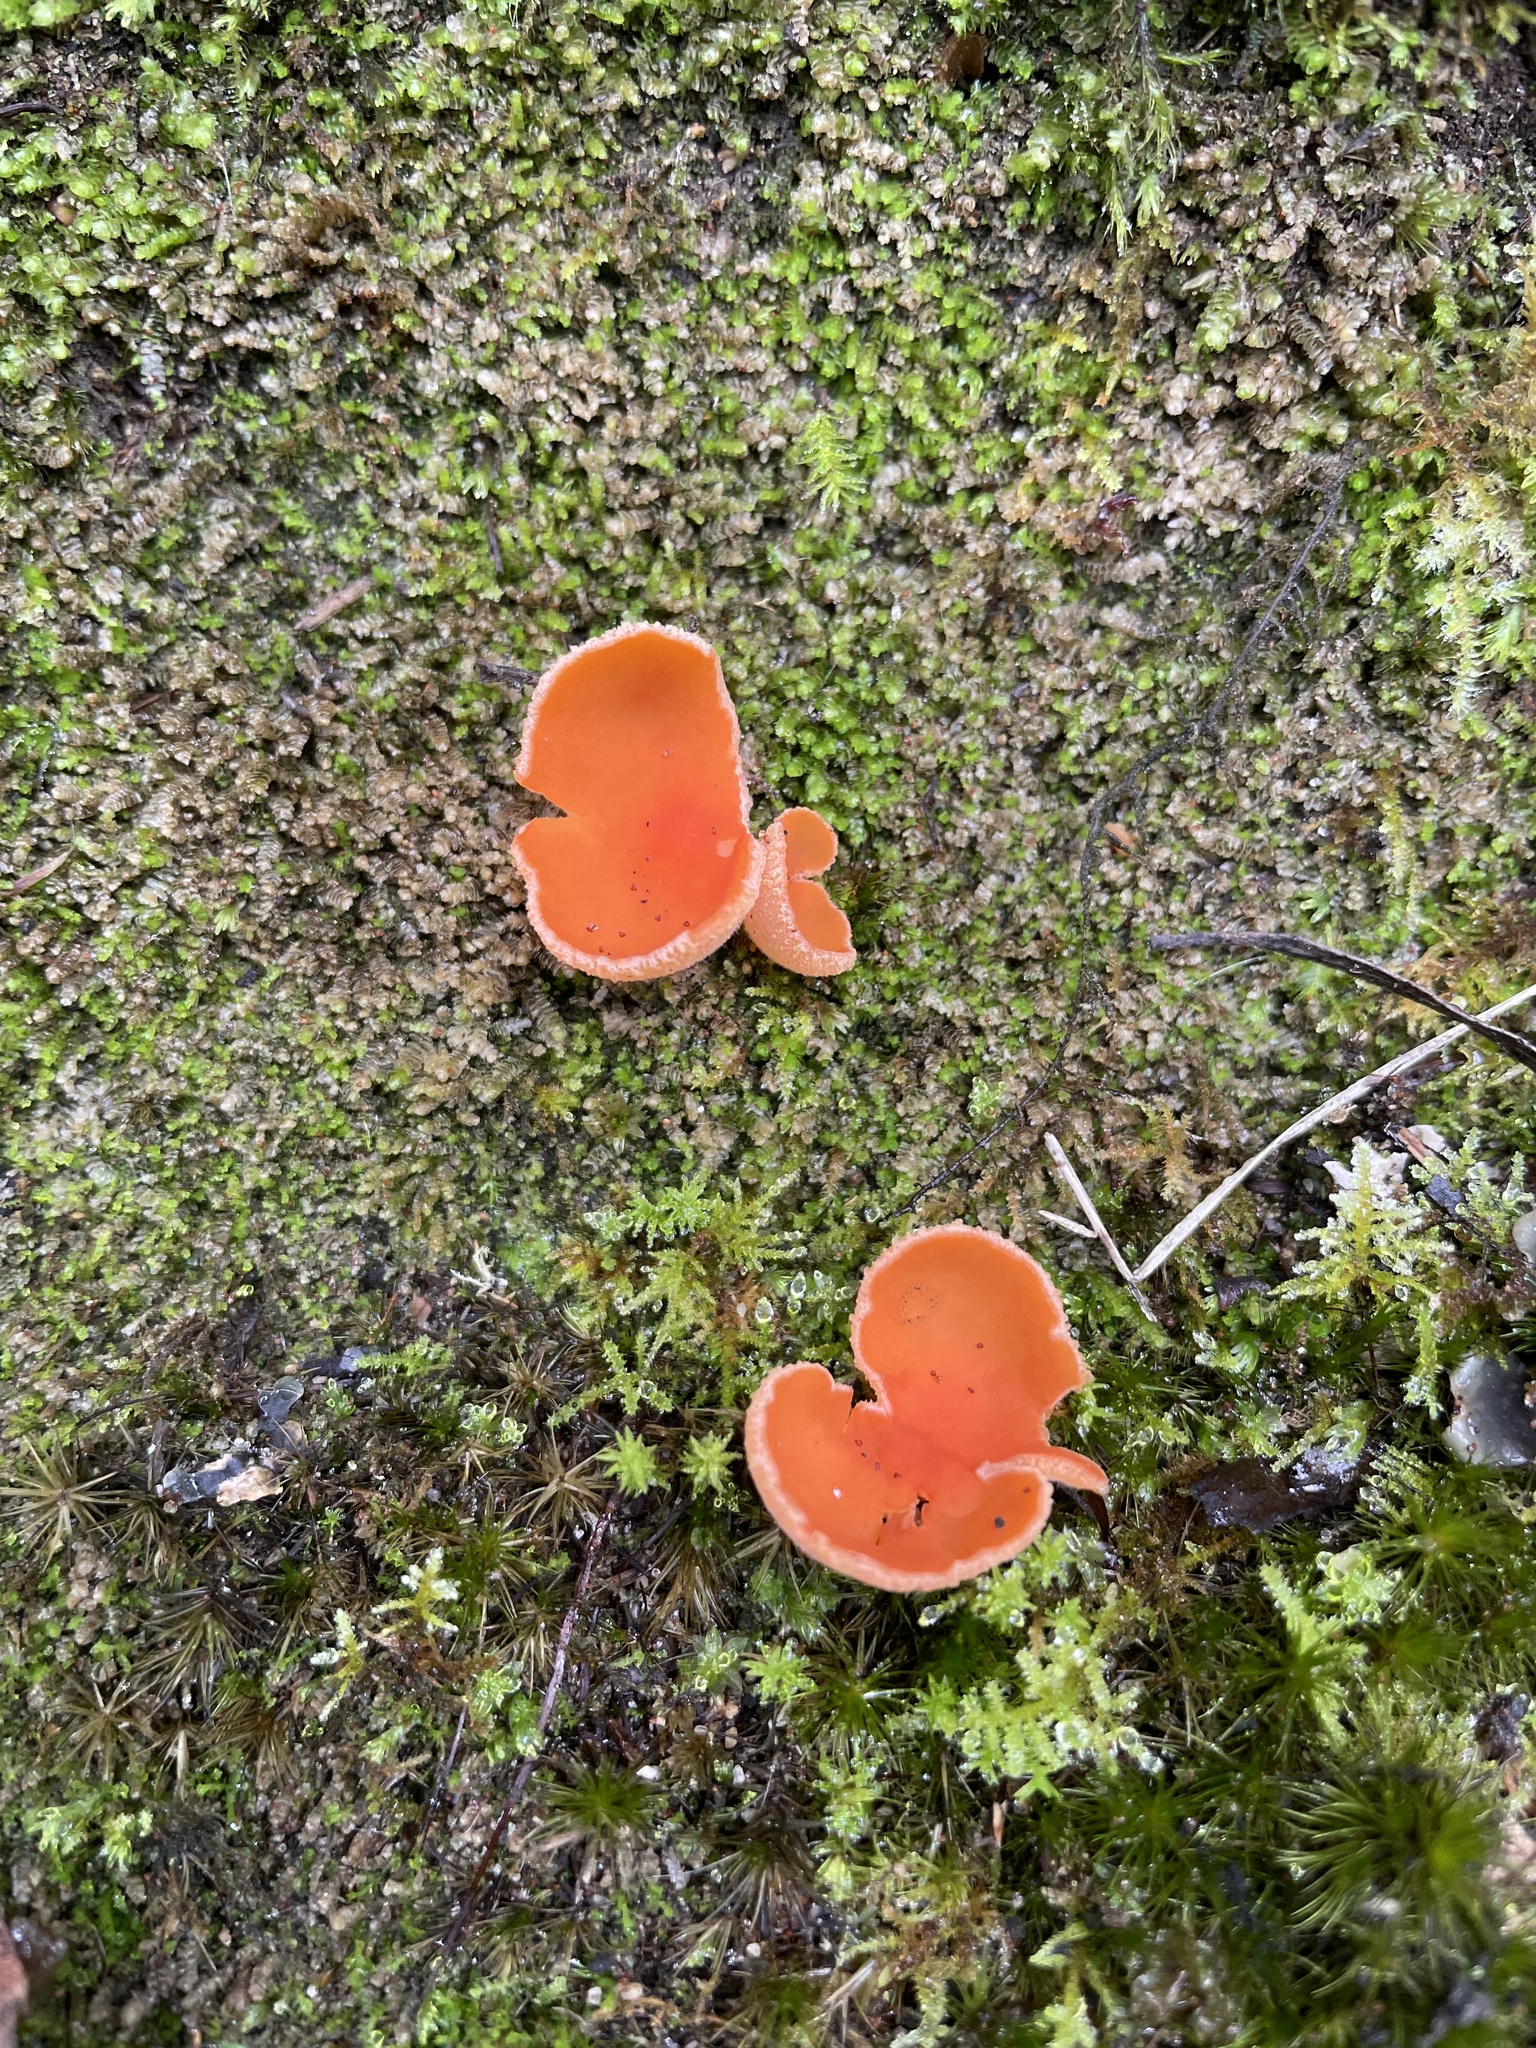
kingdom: Fungi
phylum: Ascomycota
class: Pezizomycetes
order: Pezizales
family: Pyronemataceae
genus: Aleuria
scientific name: Aleuria aurantia
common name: Orange peel fungus
